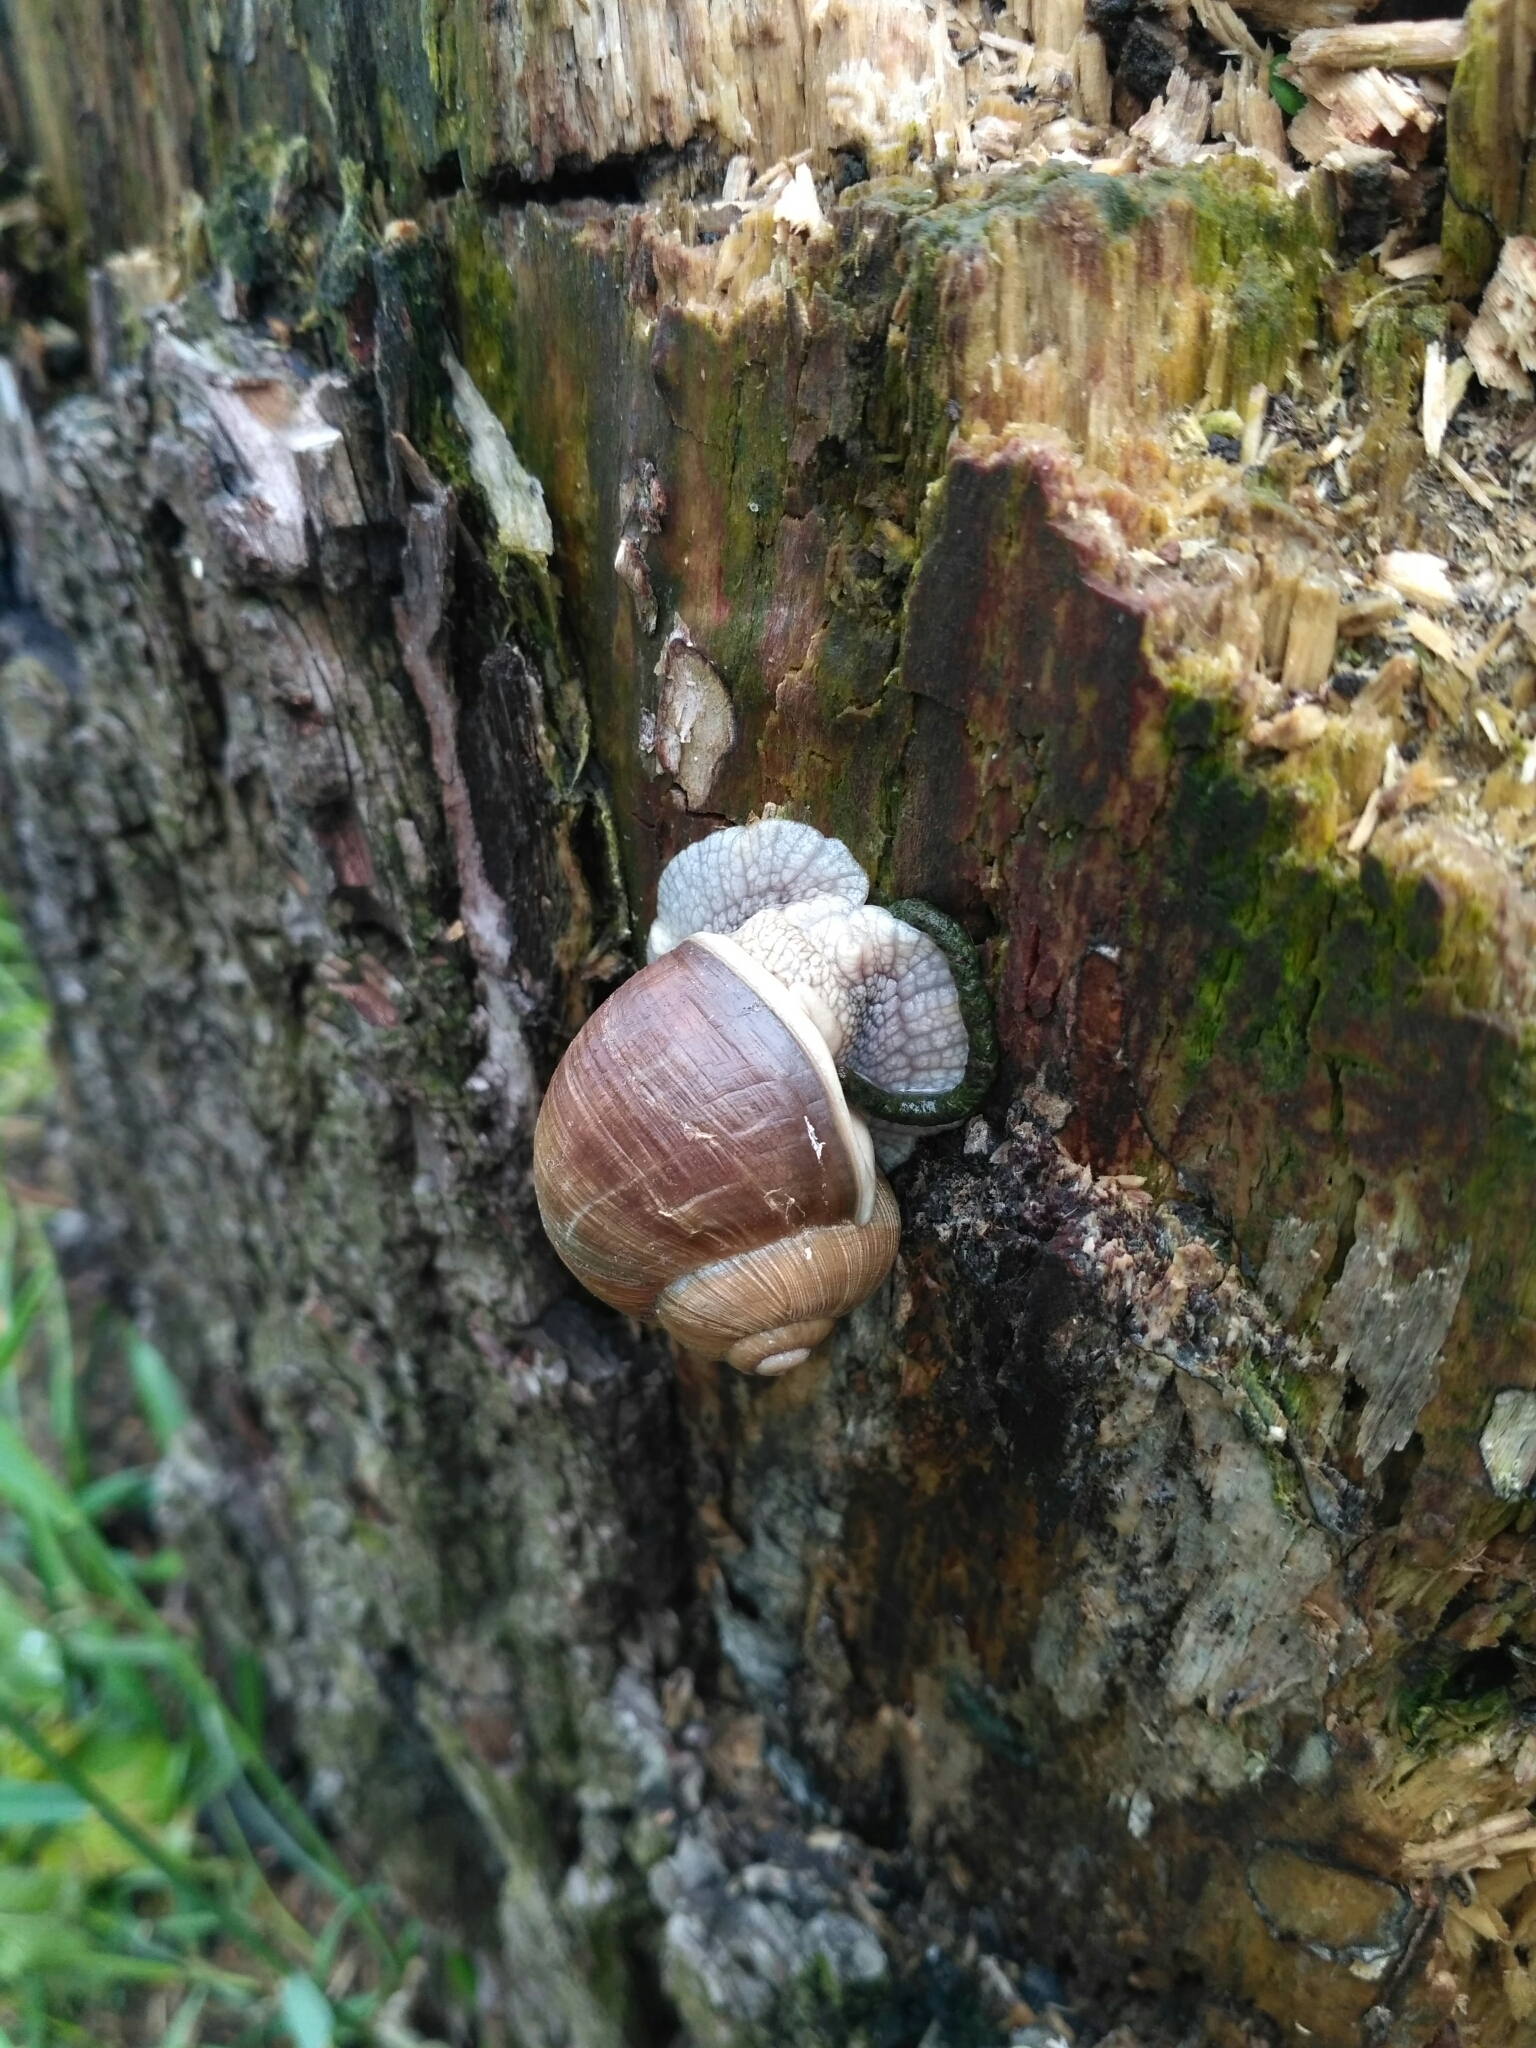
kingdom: Animalia
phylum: Mollusca
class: Gastropoda
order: Stylommatophora
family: Helicidae
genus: Helix
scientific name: Helix pomatia
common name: Roman snail
